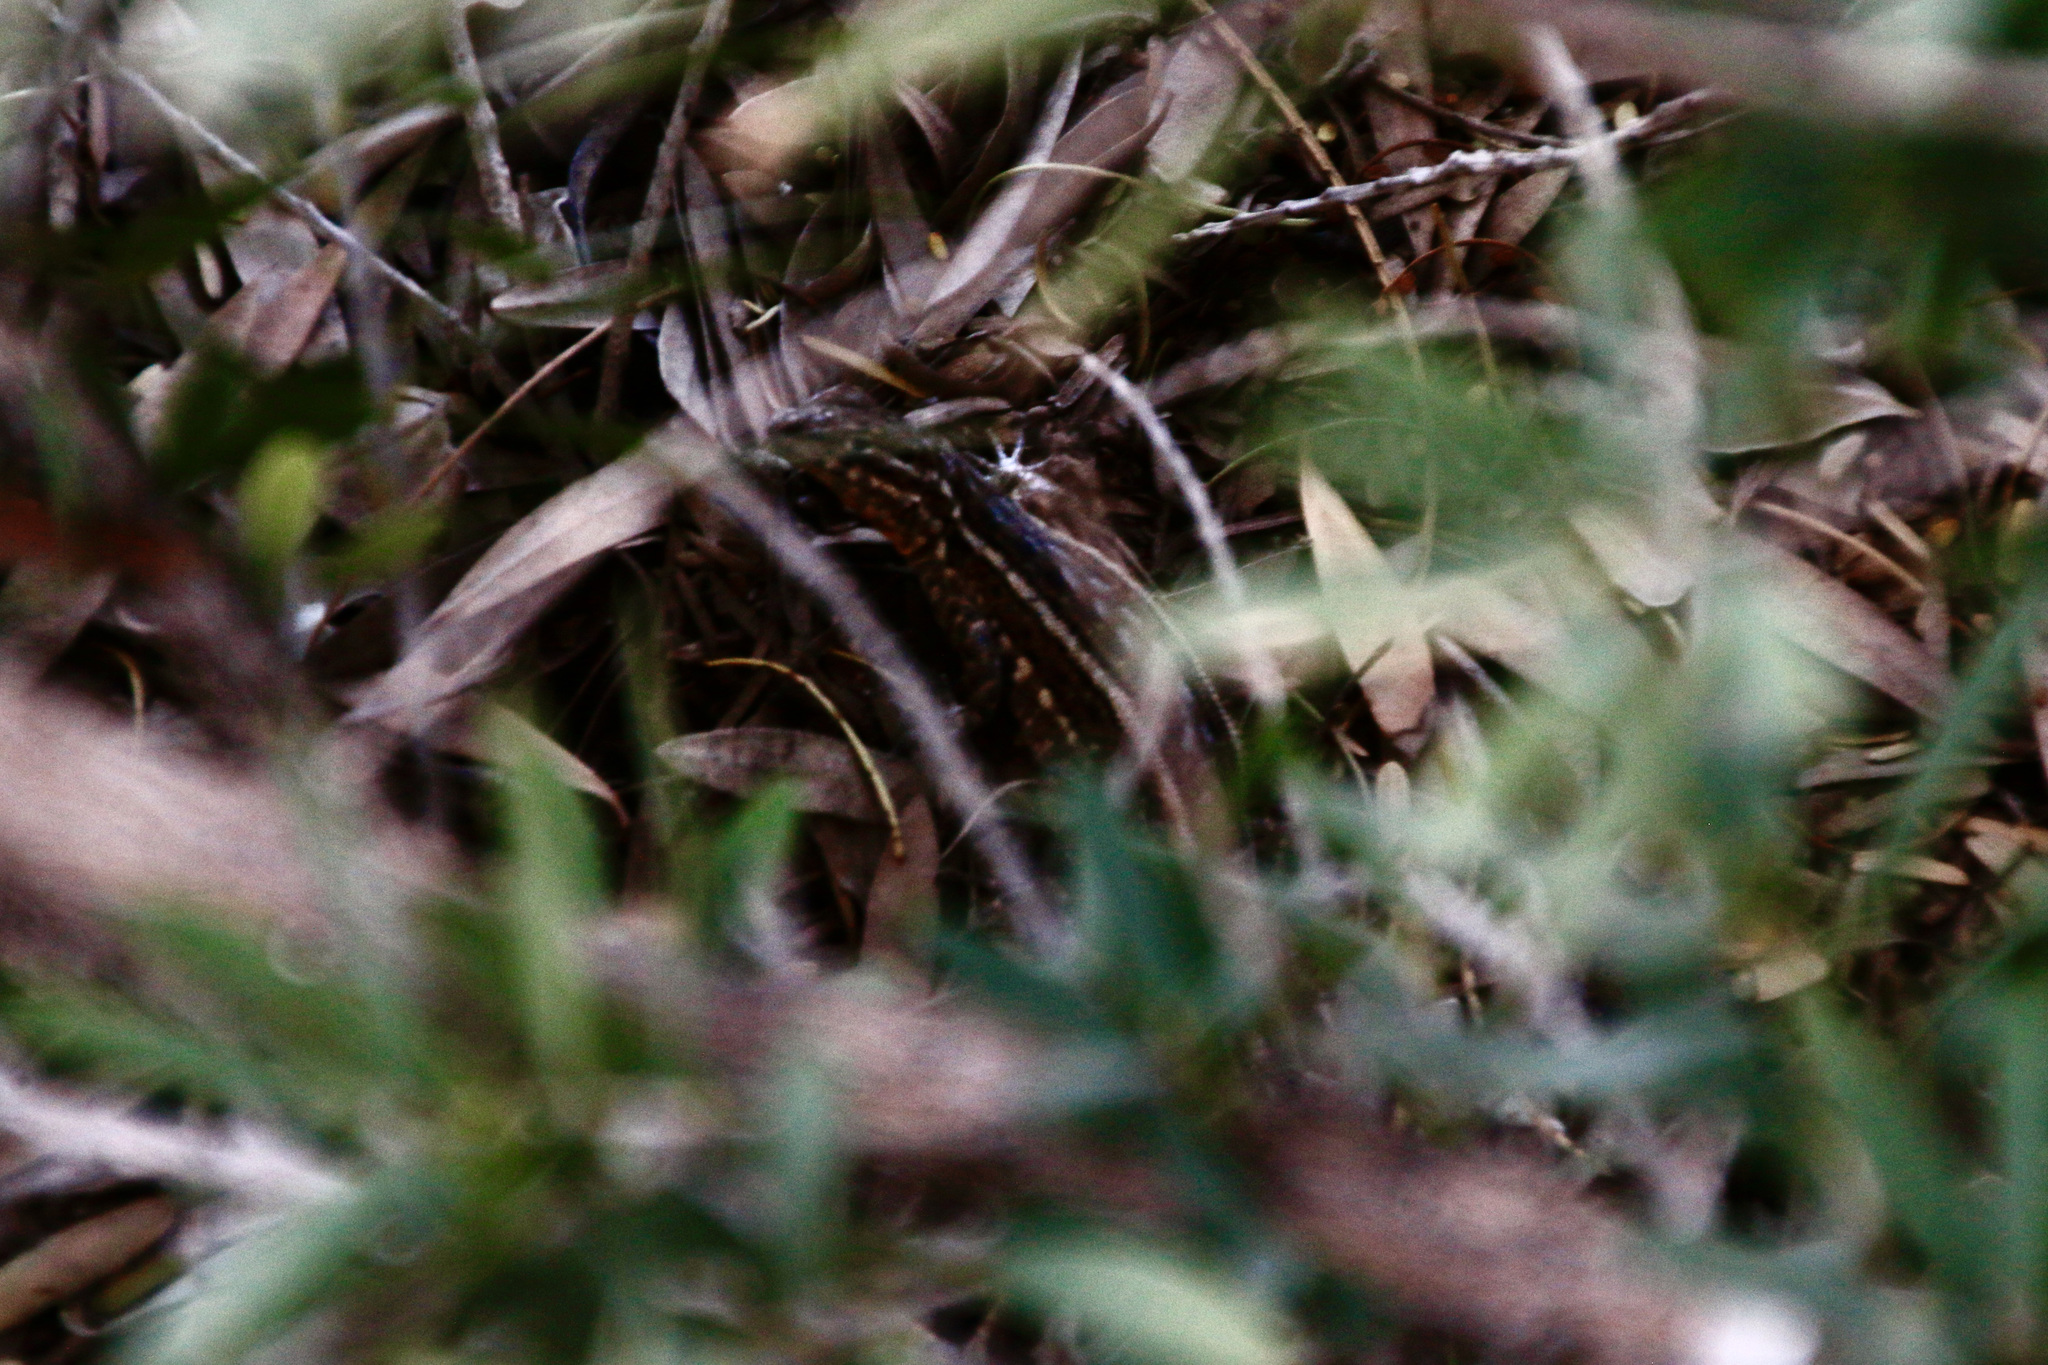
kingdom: Animalia
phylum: Chordata
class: Squamata
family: Phrynosomatidae
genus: Uta
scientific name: Uta stansburiana
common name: Side-blotched lizard
